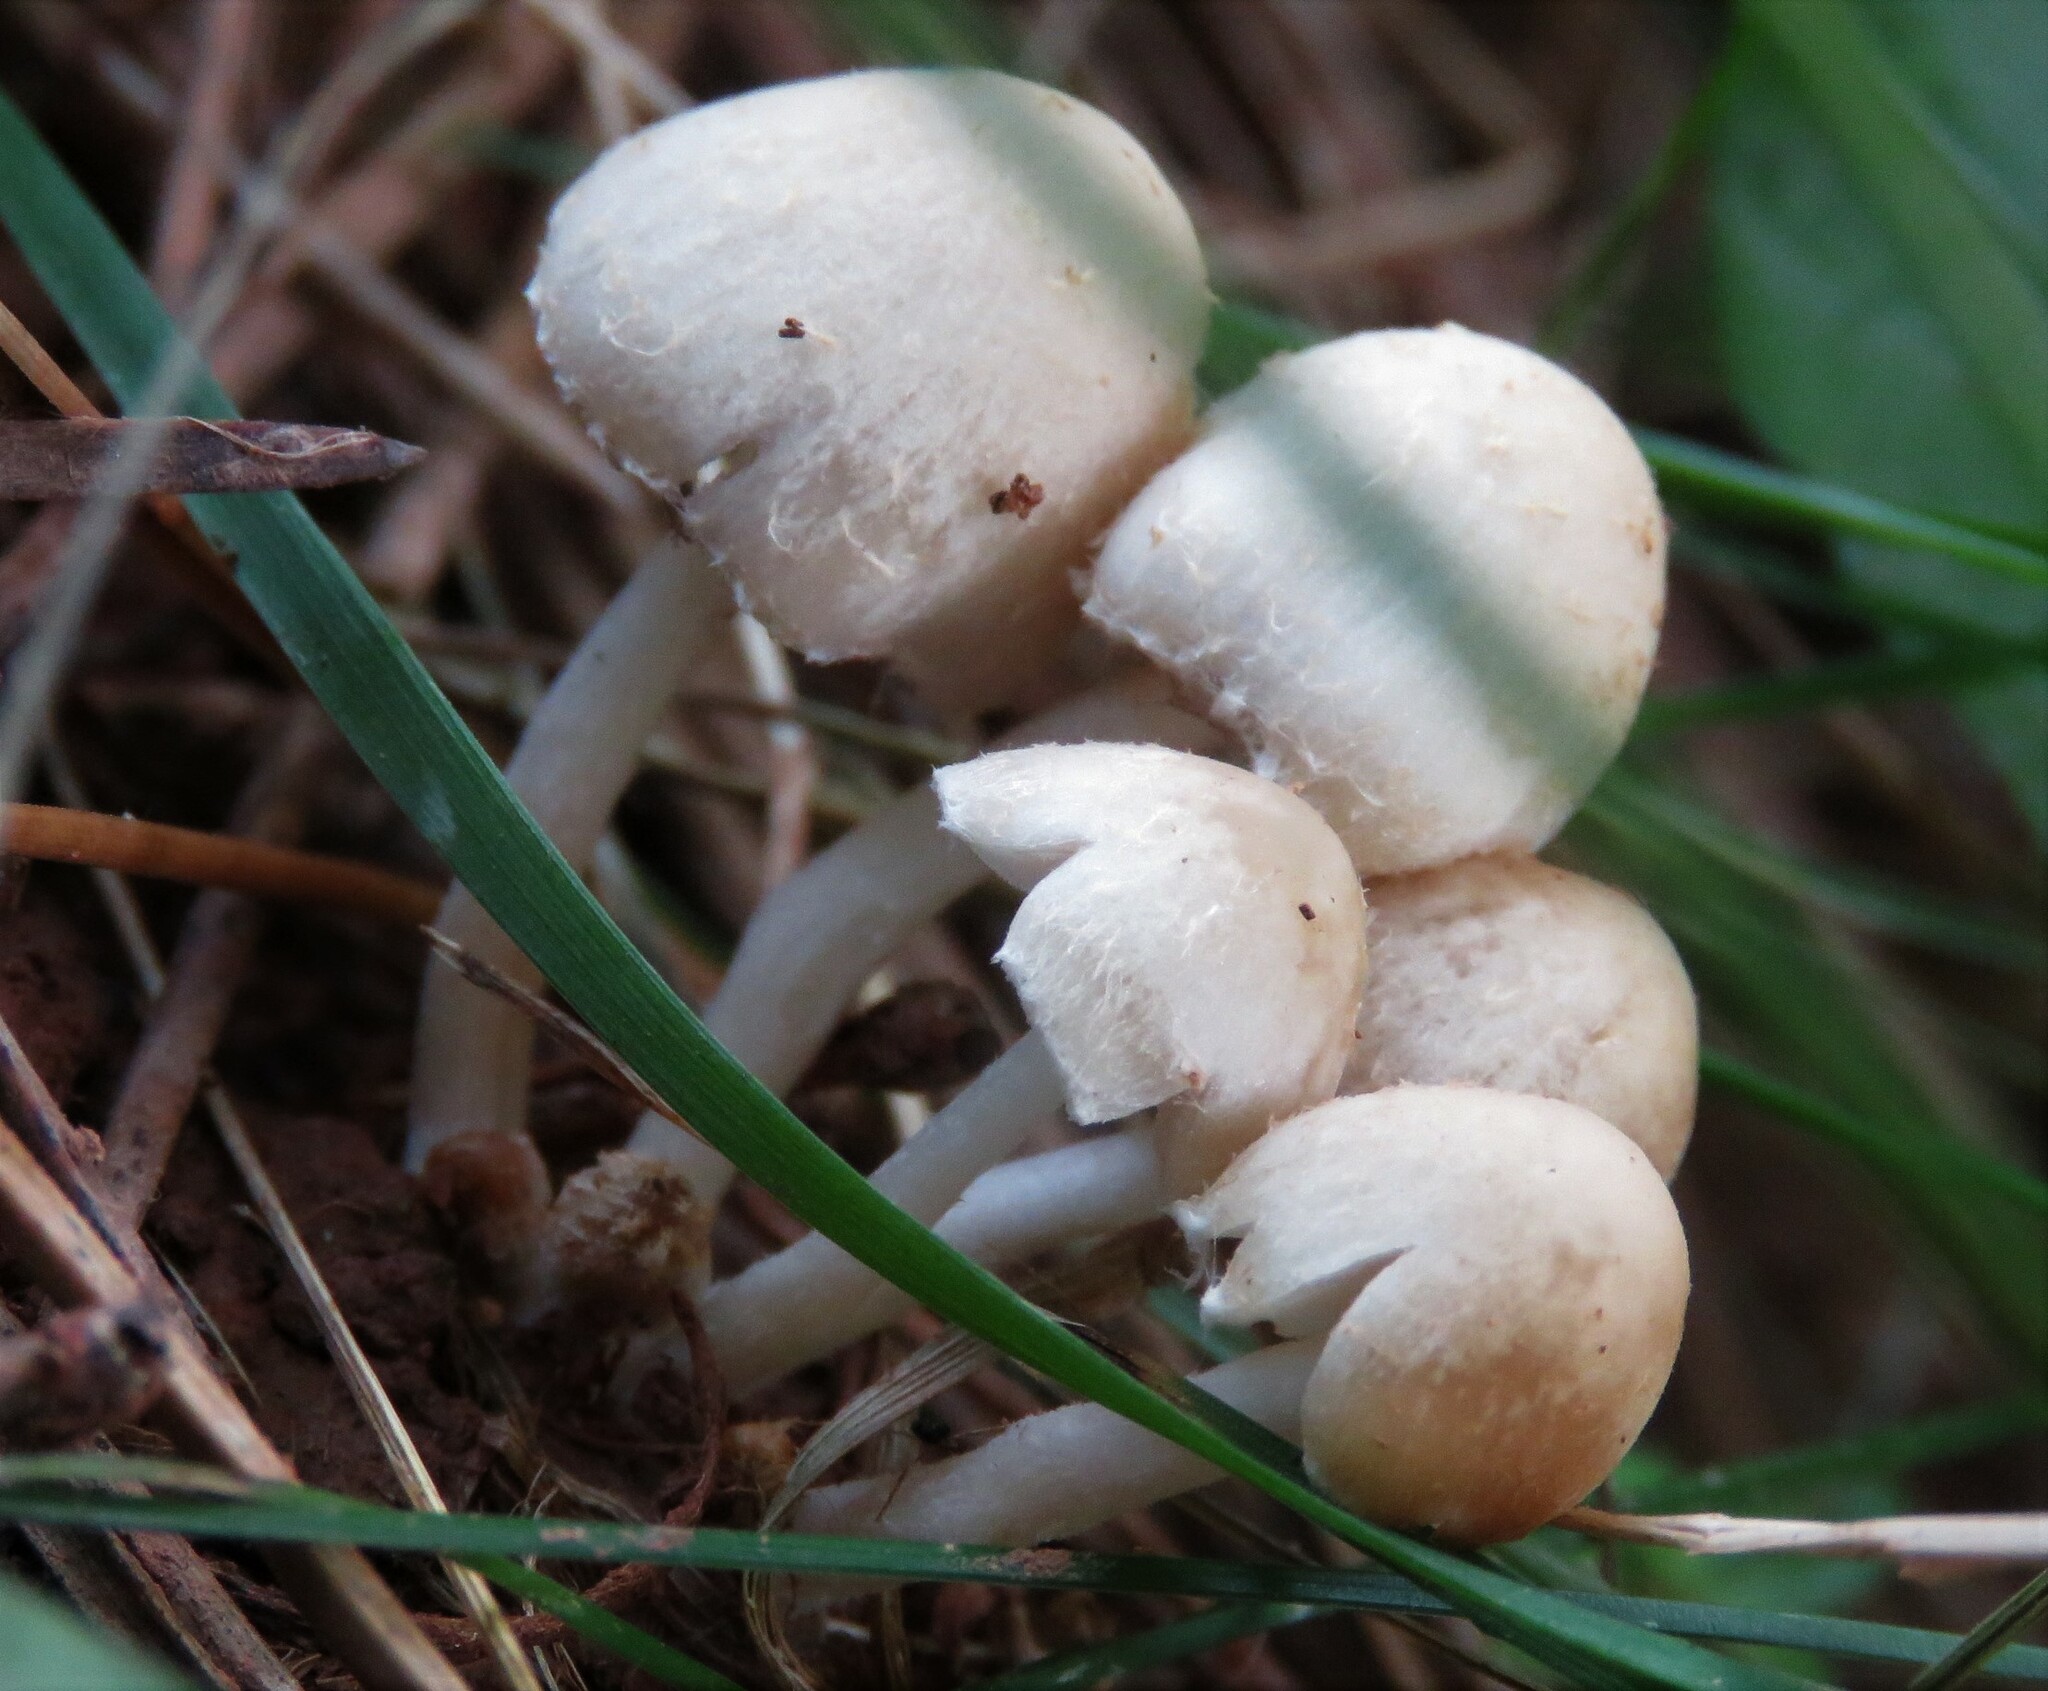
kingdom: Fungi
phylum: Basidiomycota
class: Agaricomycetes
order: Agaricales
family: Psathyrellaceae
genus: Candolleomyces
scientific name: Candolleomyces candolleanus
